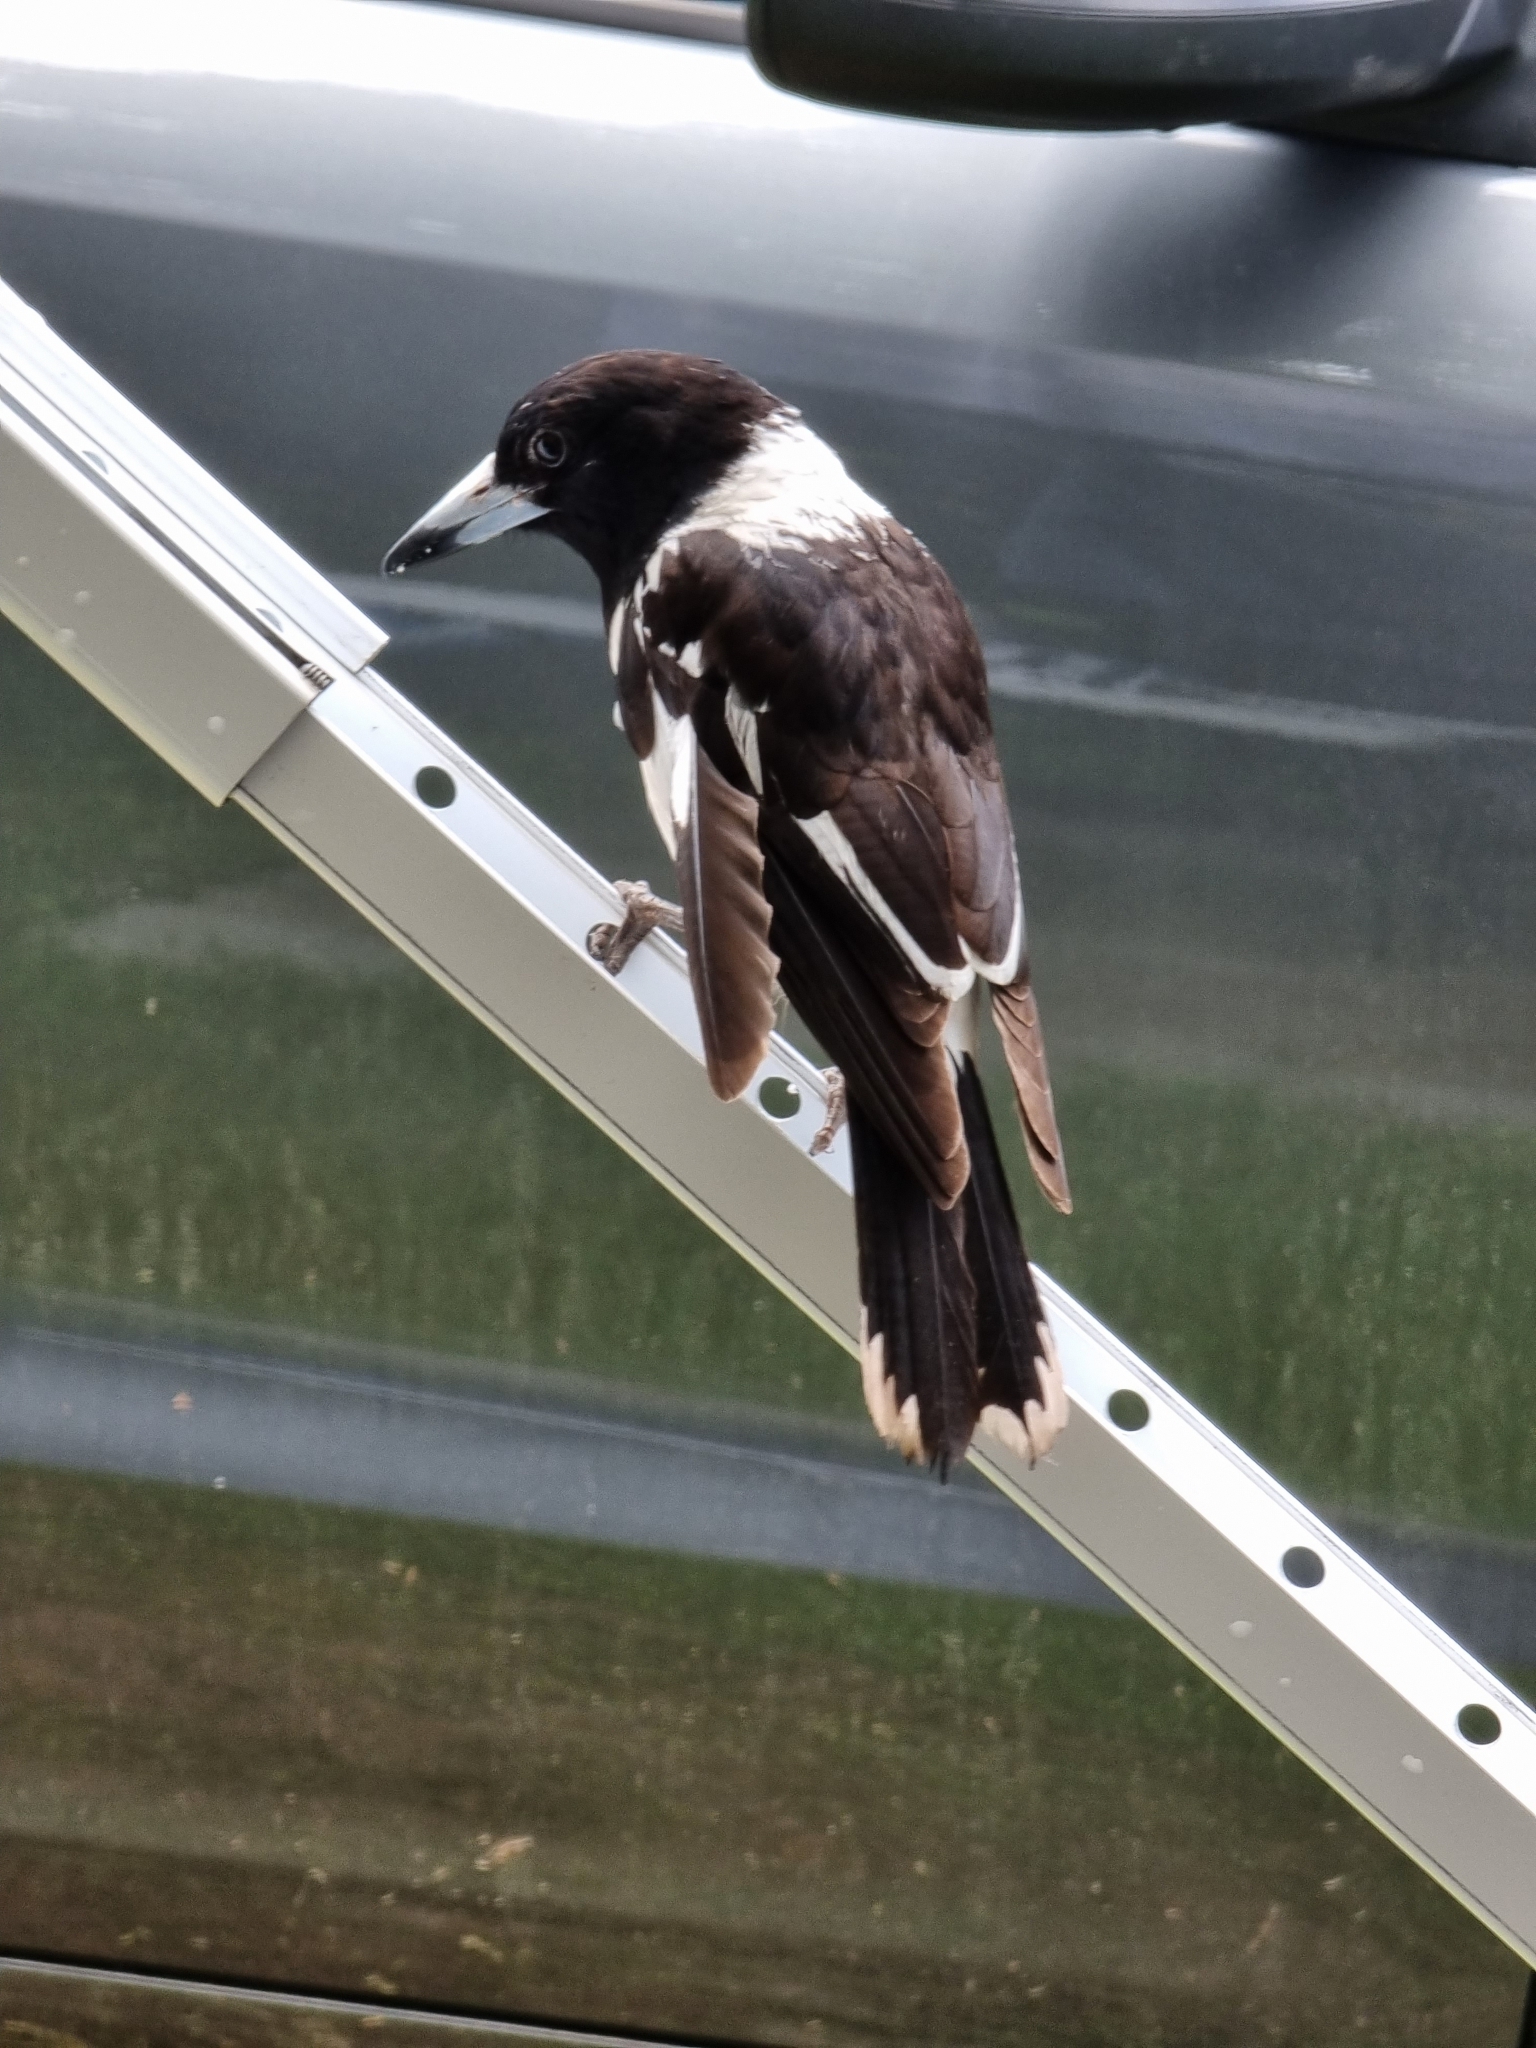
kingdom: Animalia
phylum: Chordata
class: Aves
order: Passeriformes
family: Cracticidae
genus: Cracticus
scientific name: Cracticus nigrogularis
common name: Pied butcherbird
